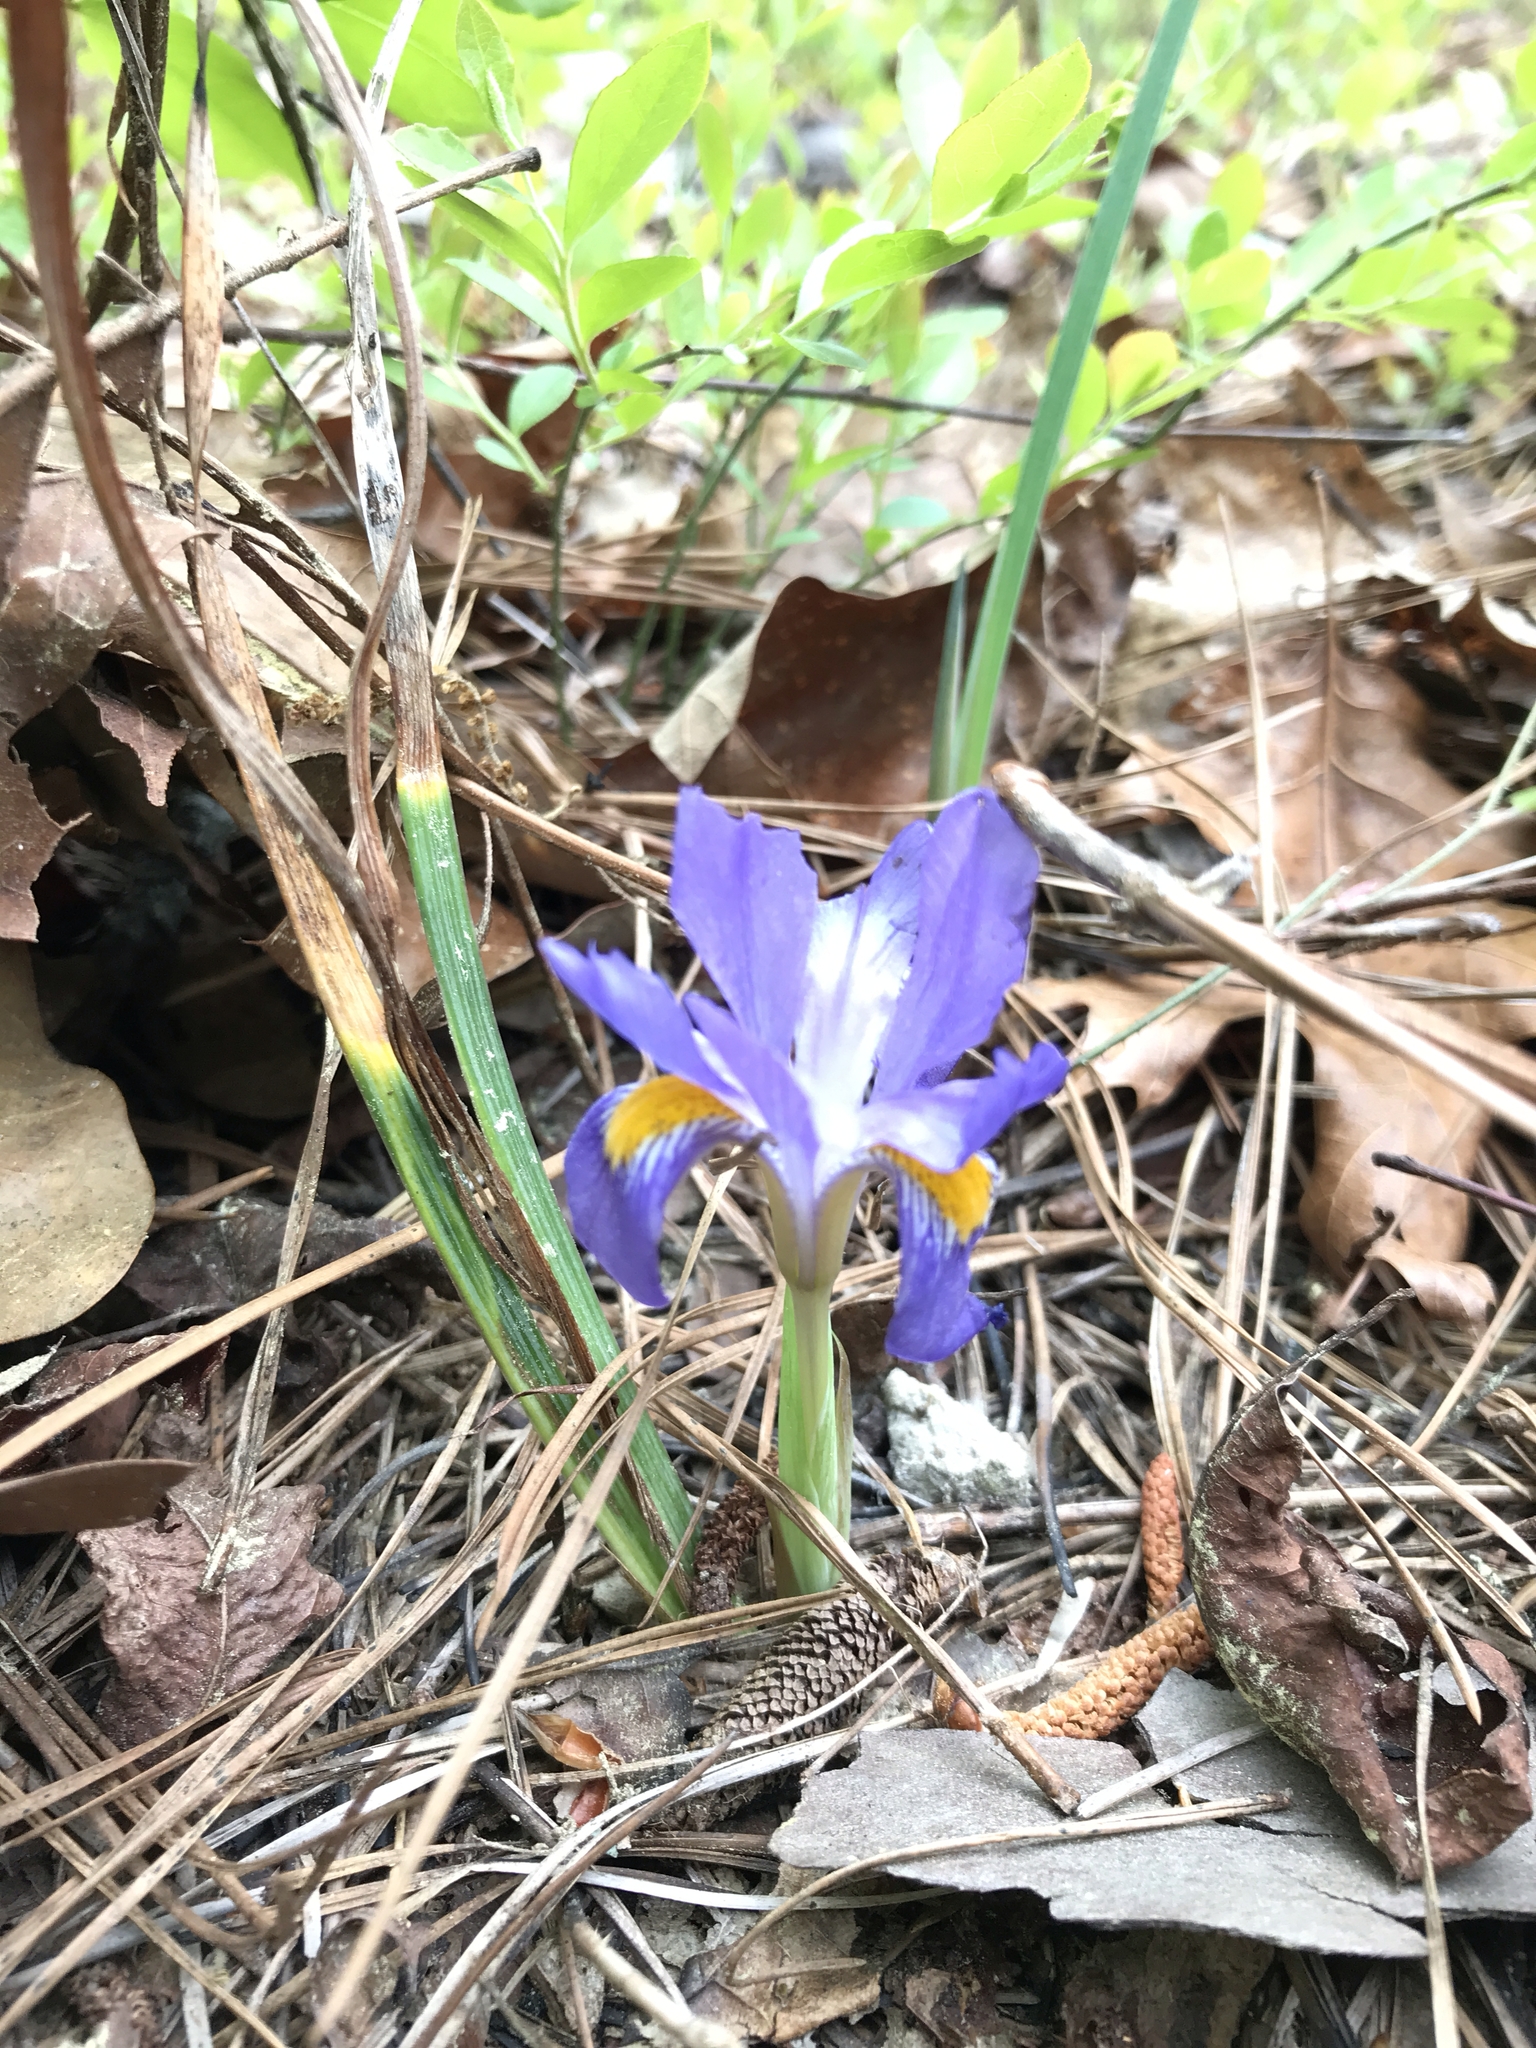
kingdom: Plantae
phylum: Tracheophyta
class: Liliopsida
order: Asparagales
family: Iridaceae
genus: Iris
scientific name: Iris verna
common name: Dwarf iris
